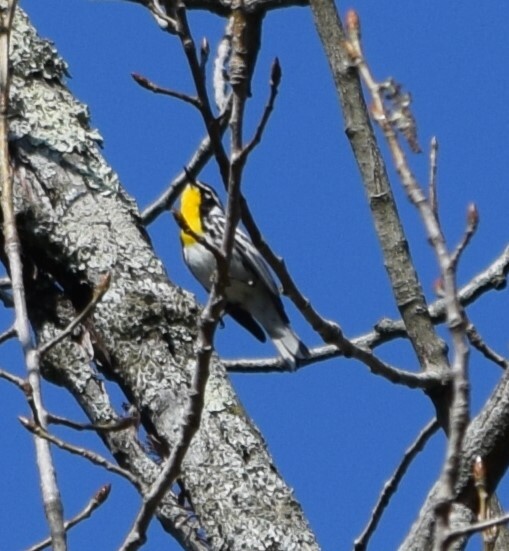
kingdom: Animalia
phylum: Chordata
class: Aves
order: Passeriformes
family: Parulidae
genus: Setophaga
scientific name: Setophaga dominica
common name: Yellow-throated warbler
